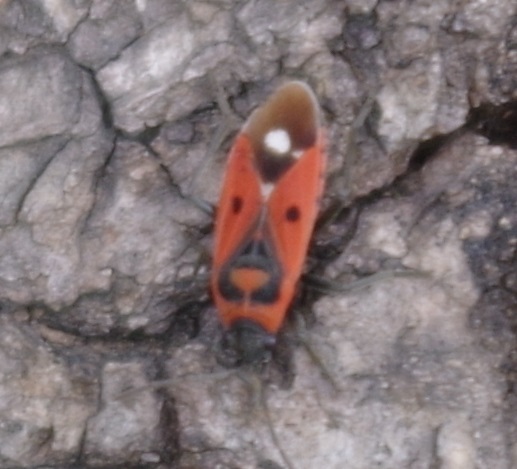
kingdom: Animalia
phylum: Arthropoda
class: Insecta
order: Hemiptera
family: Lygaeidae
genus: Melanocoryphus
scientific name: Melanocoryphus albomaculatus
